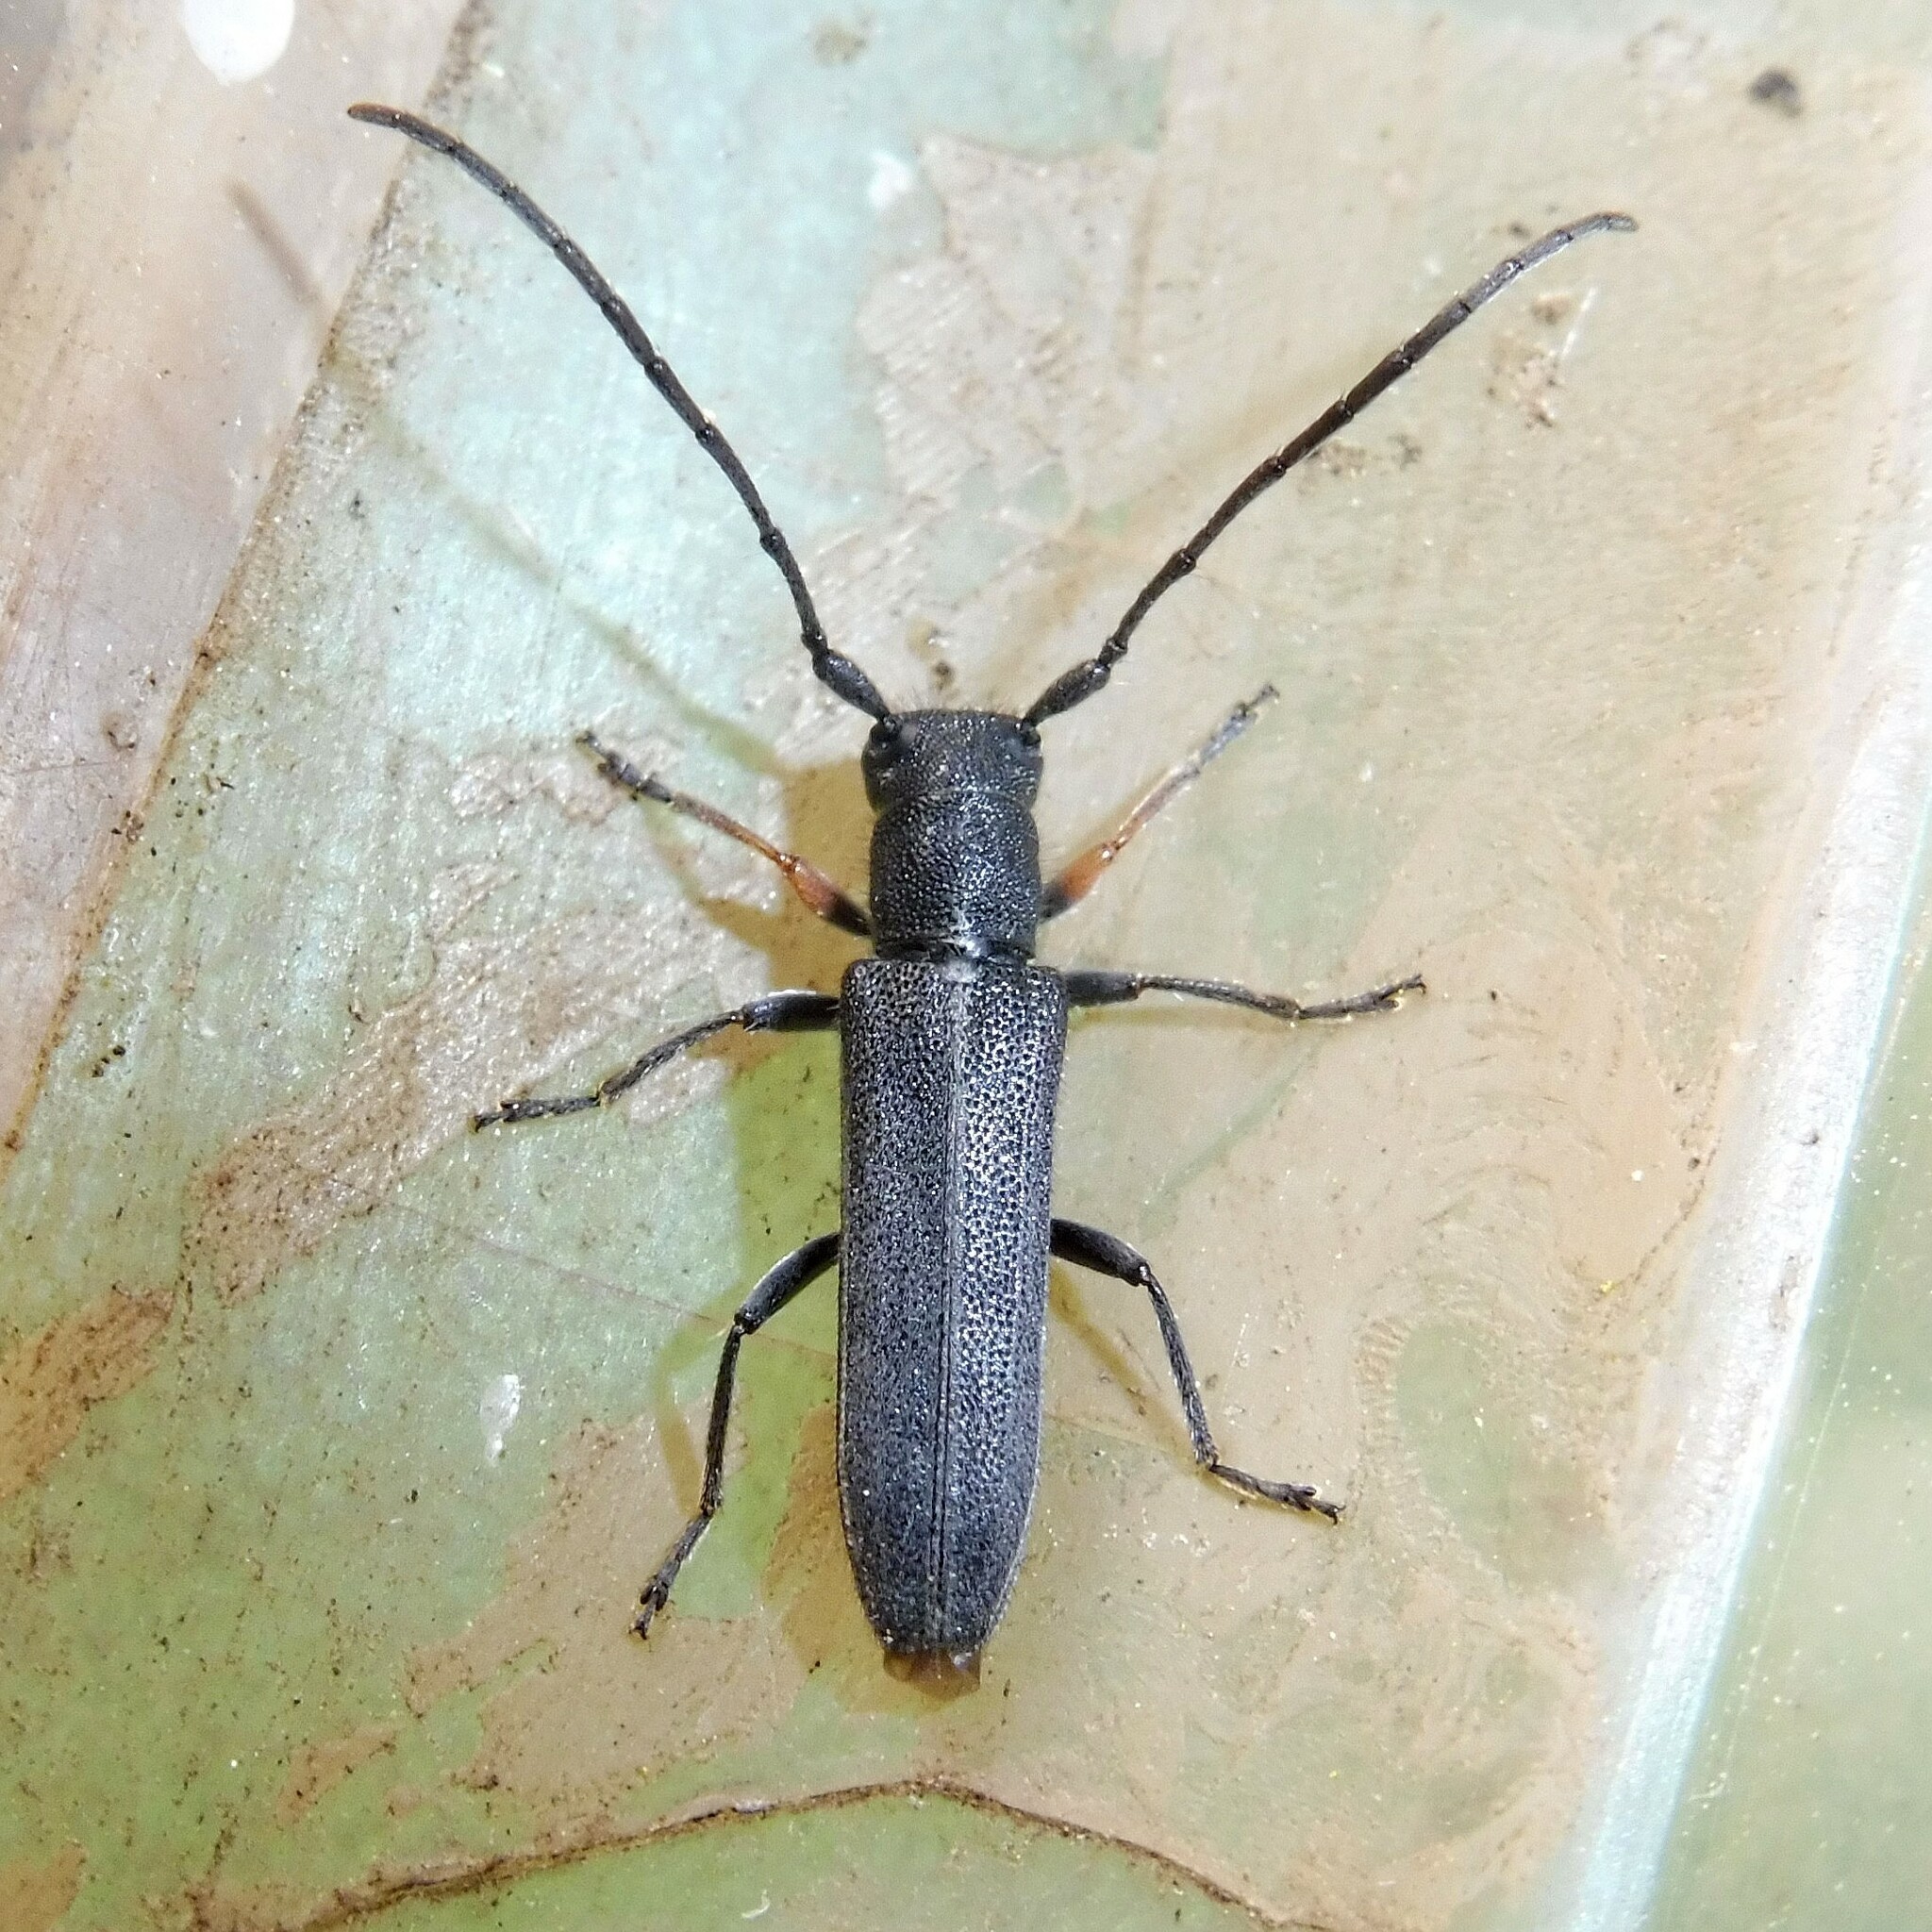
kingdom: Animalia
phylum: Arthropoda
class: Insecta
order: Coleoptera
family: Cerambycidae
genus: Phytoecia
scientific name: Phytoecia cylindrica
